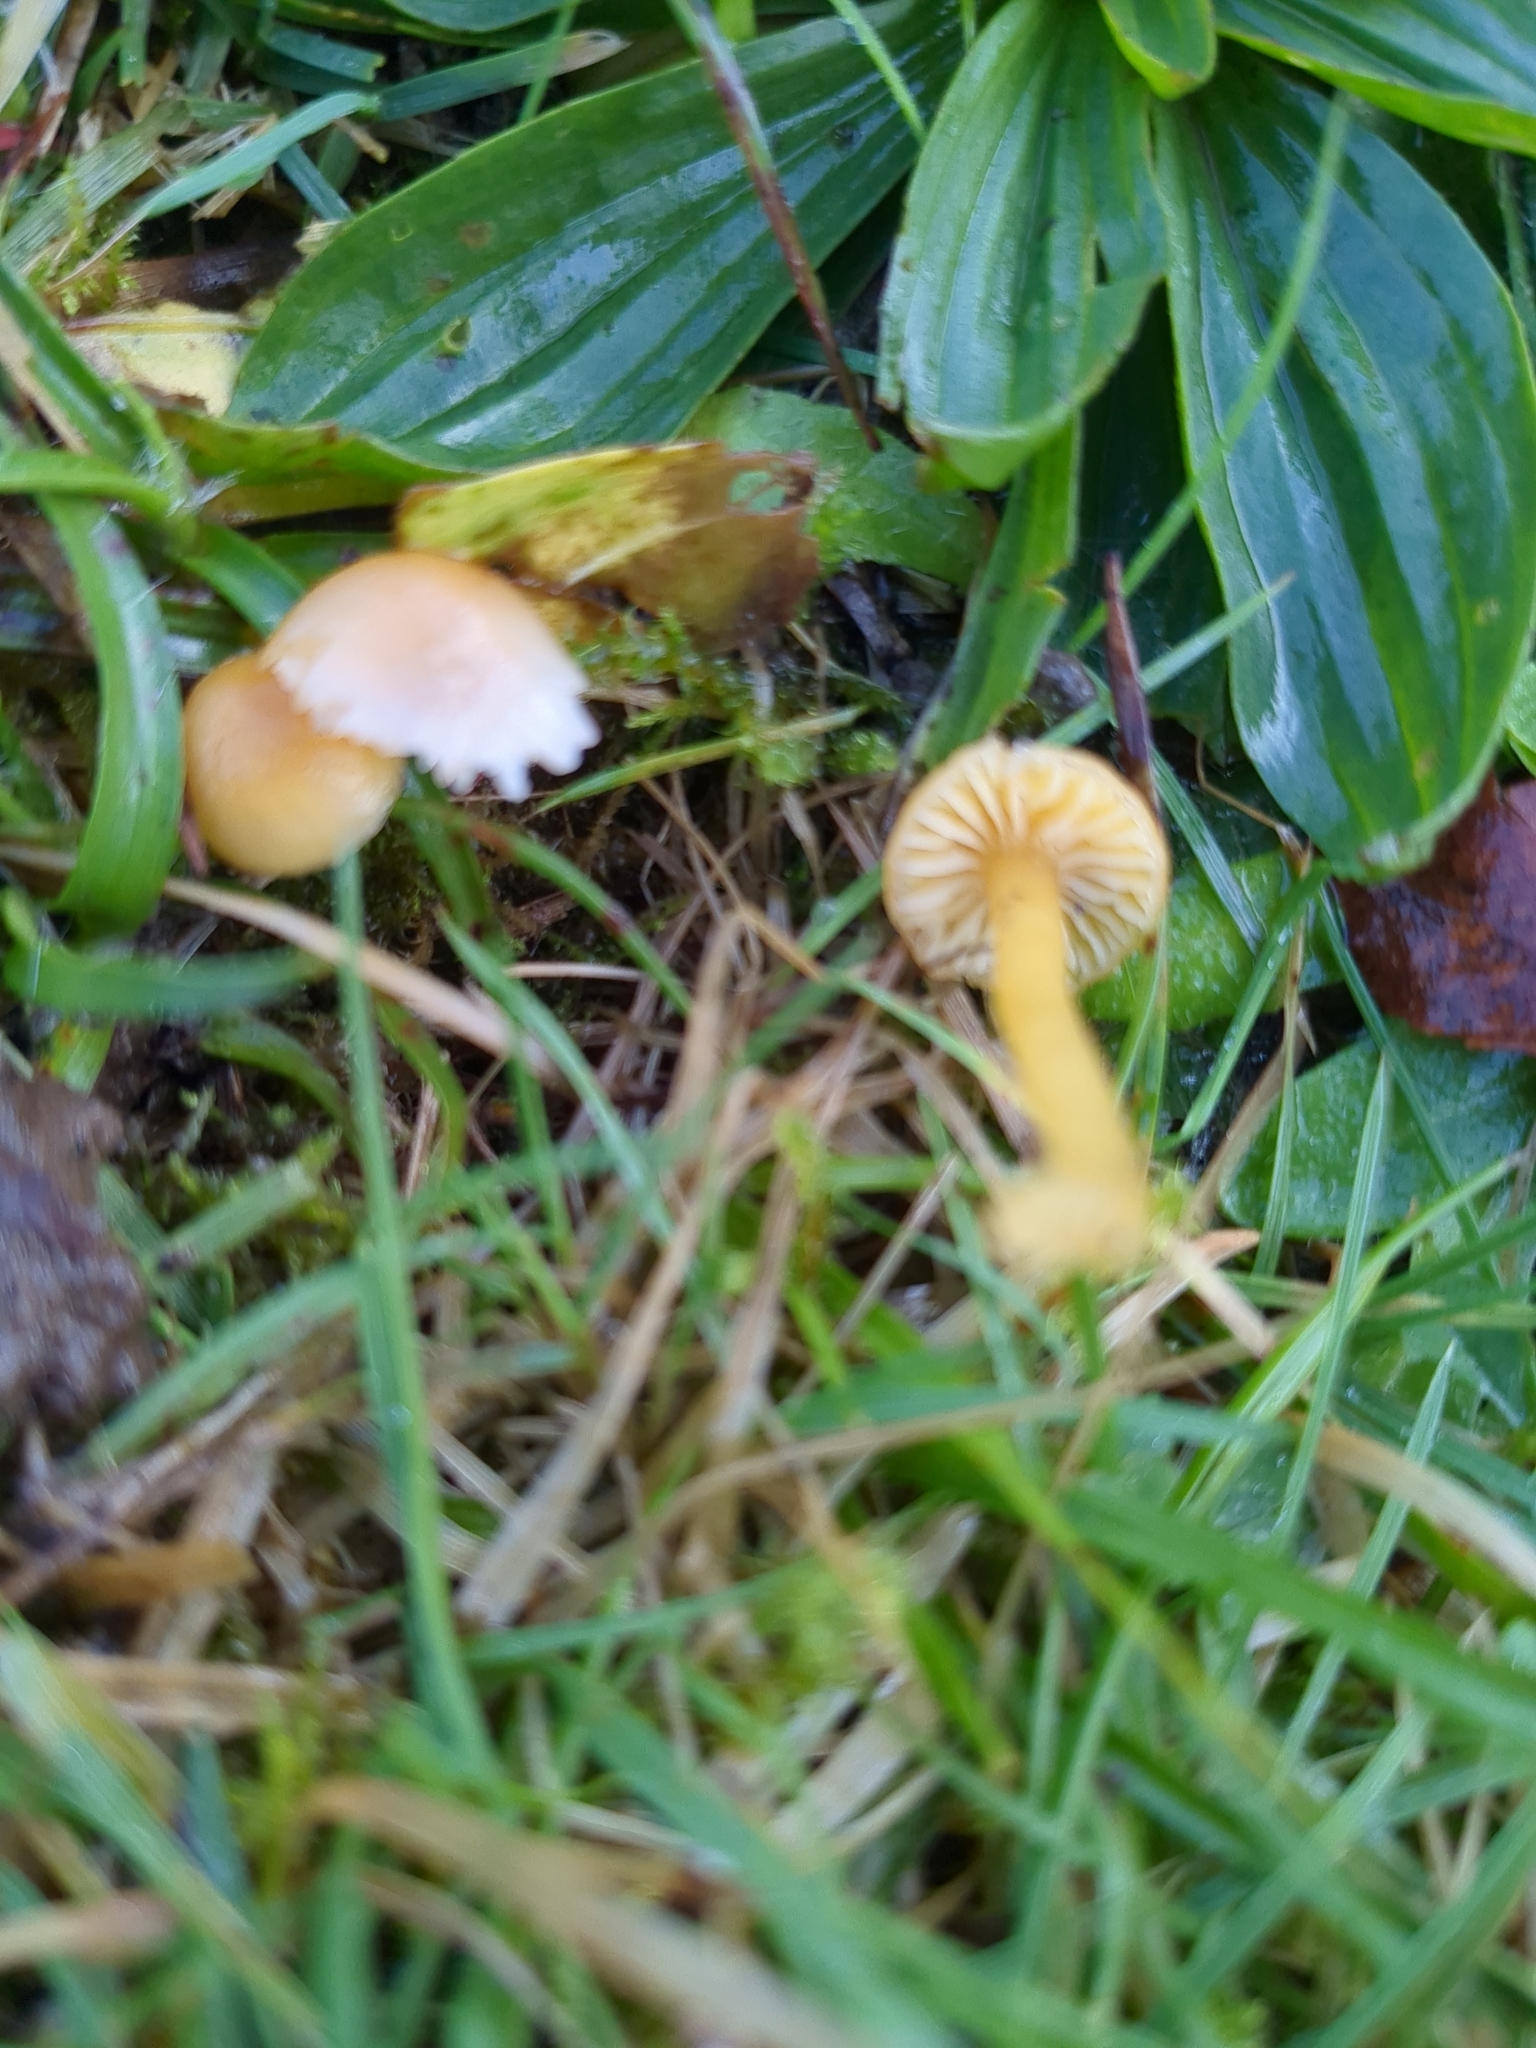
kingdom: Fungi
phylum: Basidiomycota
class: Agaricomycetes
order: Agaricales
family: Hygrophoraceae
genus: Gliophorus
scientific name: Gliophorus psittacinus
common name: Parrot wax-cap
